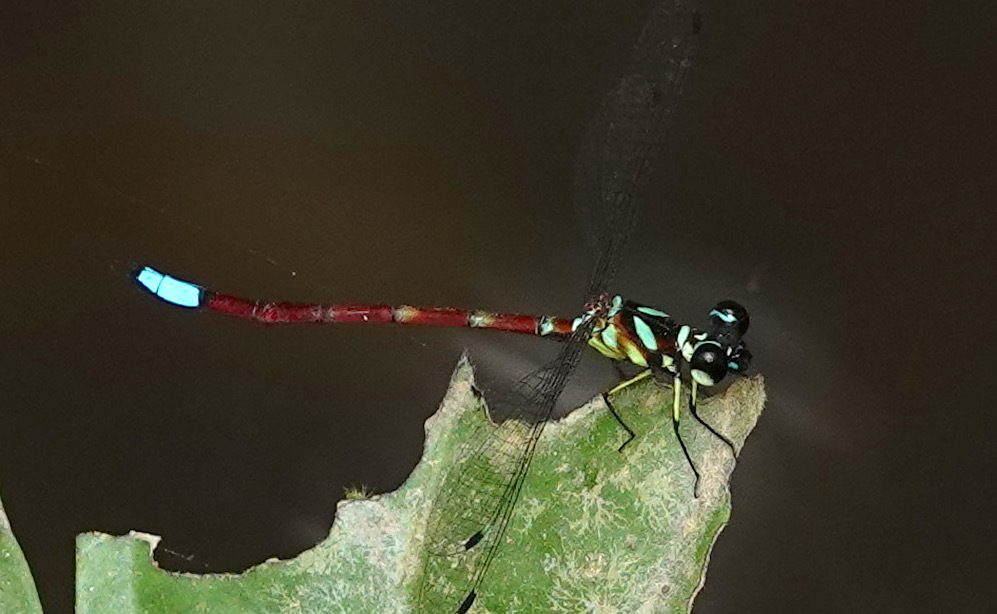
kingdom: Animalia
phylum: Arthropoda
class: Insecta
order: Odonata
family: Philosinidae
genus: Rhinagrion
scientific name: Rhinagrion macrocephalum
